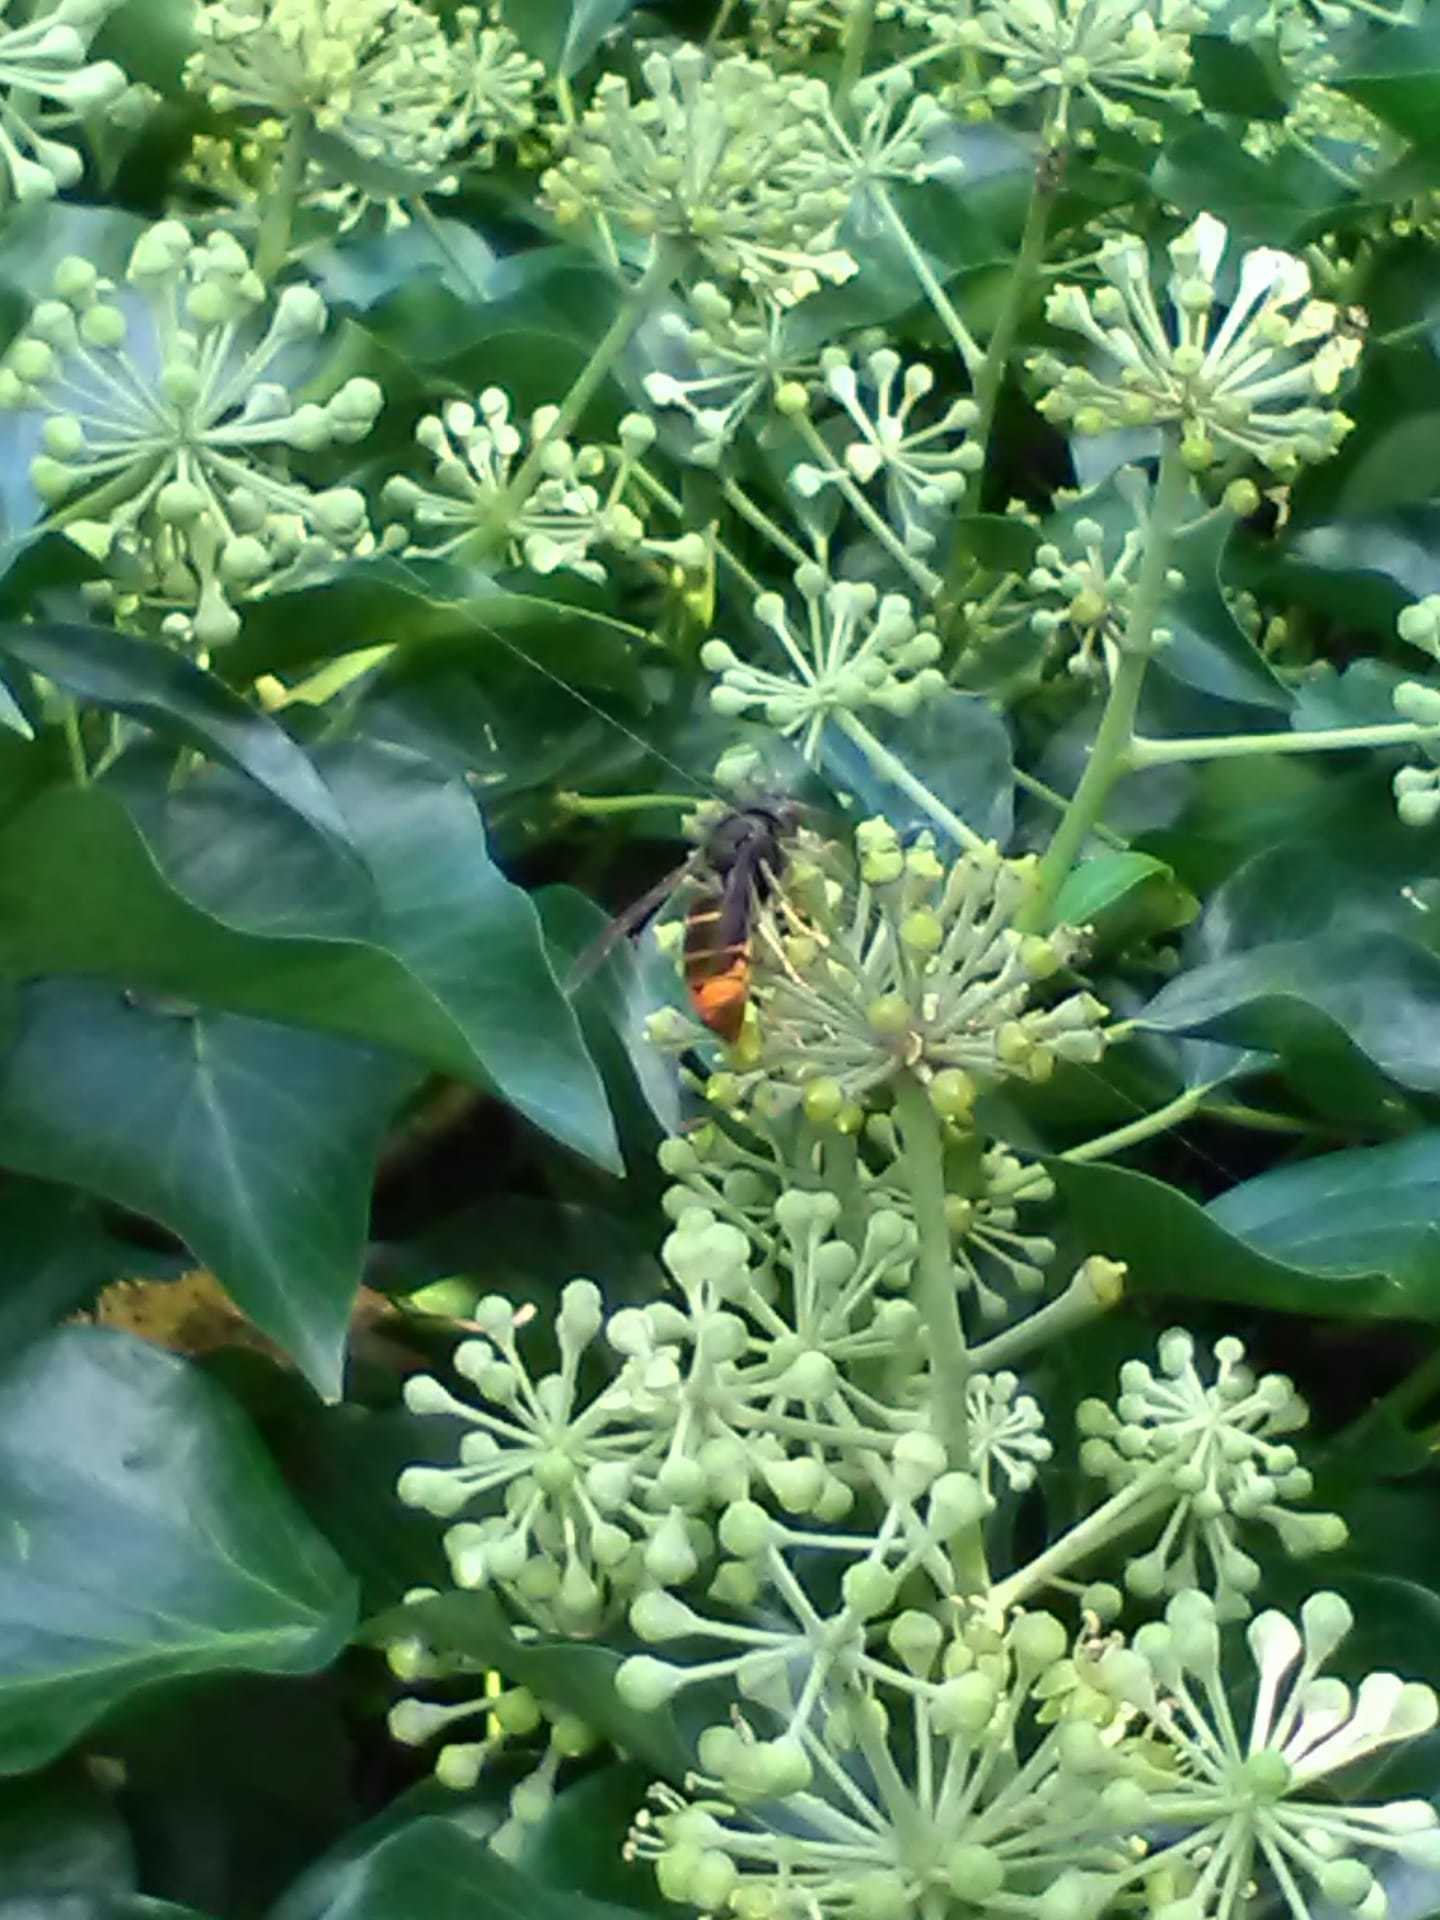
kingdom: Animalia
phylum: Arthropoda
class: Insecta
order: Hymenoptera
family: Vespidae
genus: Vespa
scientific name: Vespa velutina
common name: Asian hornet
